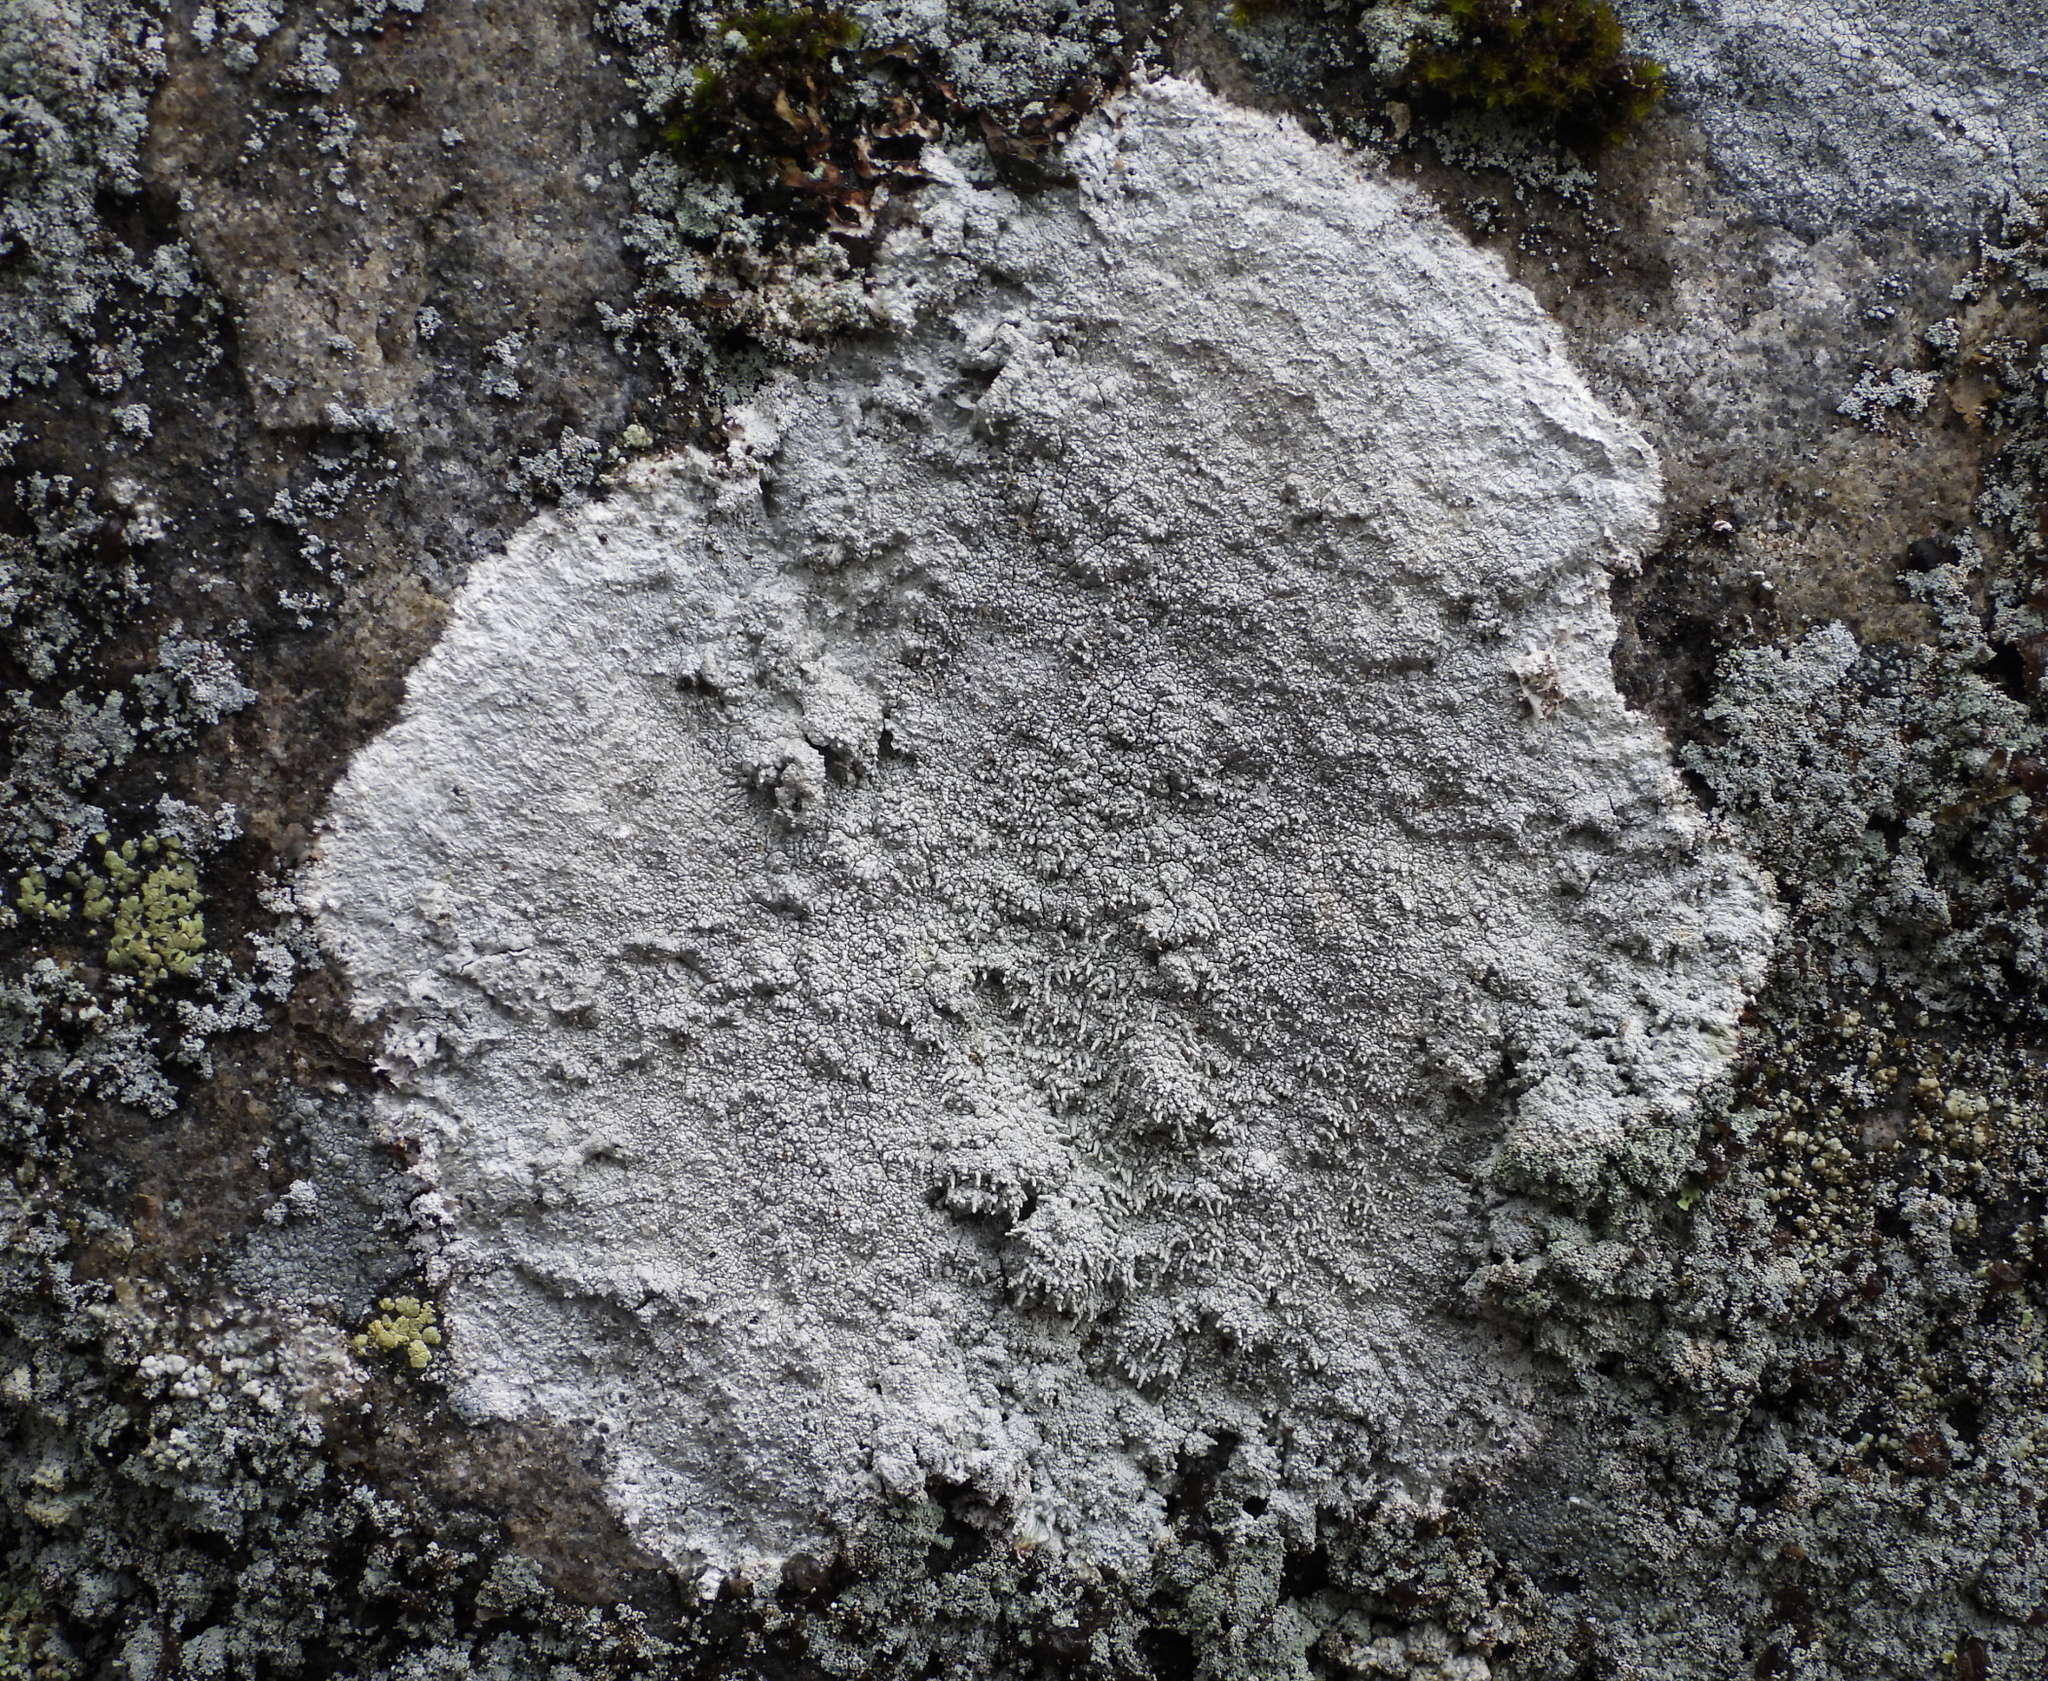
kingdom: Fungi
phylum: Ascomycota
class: Lecanoromycetes
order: Pertusariales
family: Pertusariaceae
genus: Lepra
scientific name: Lepra corallina
